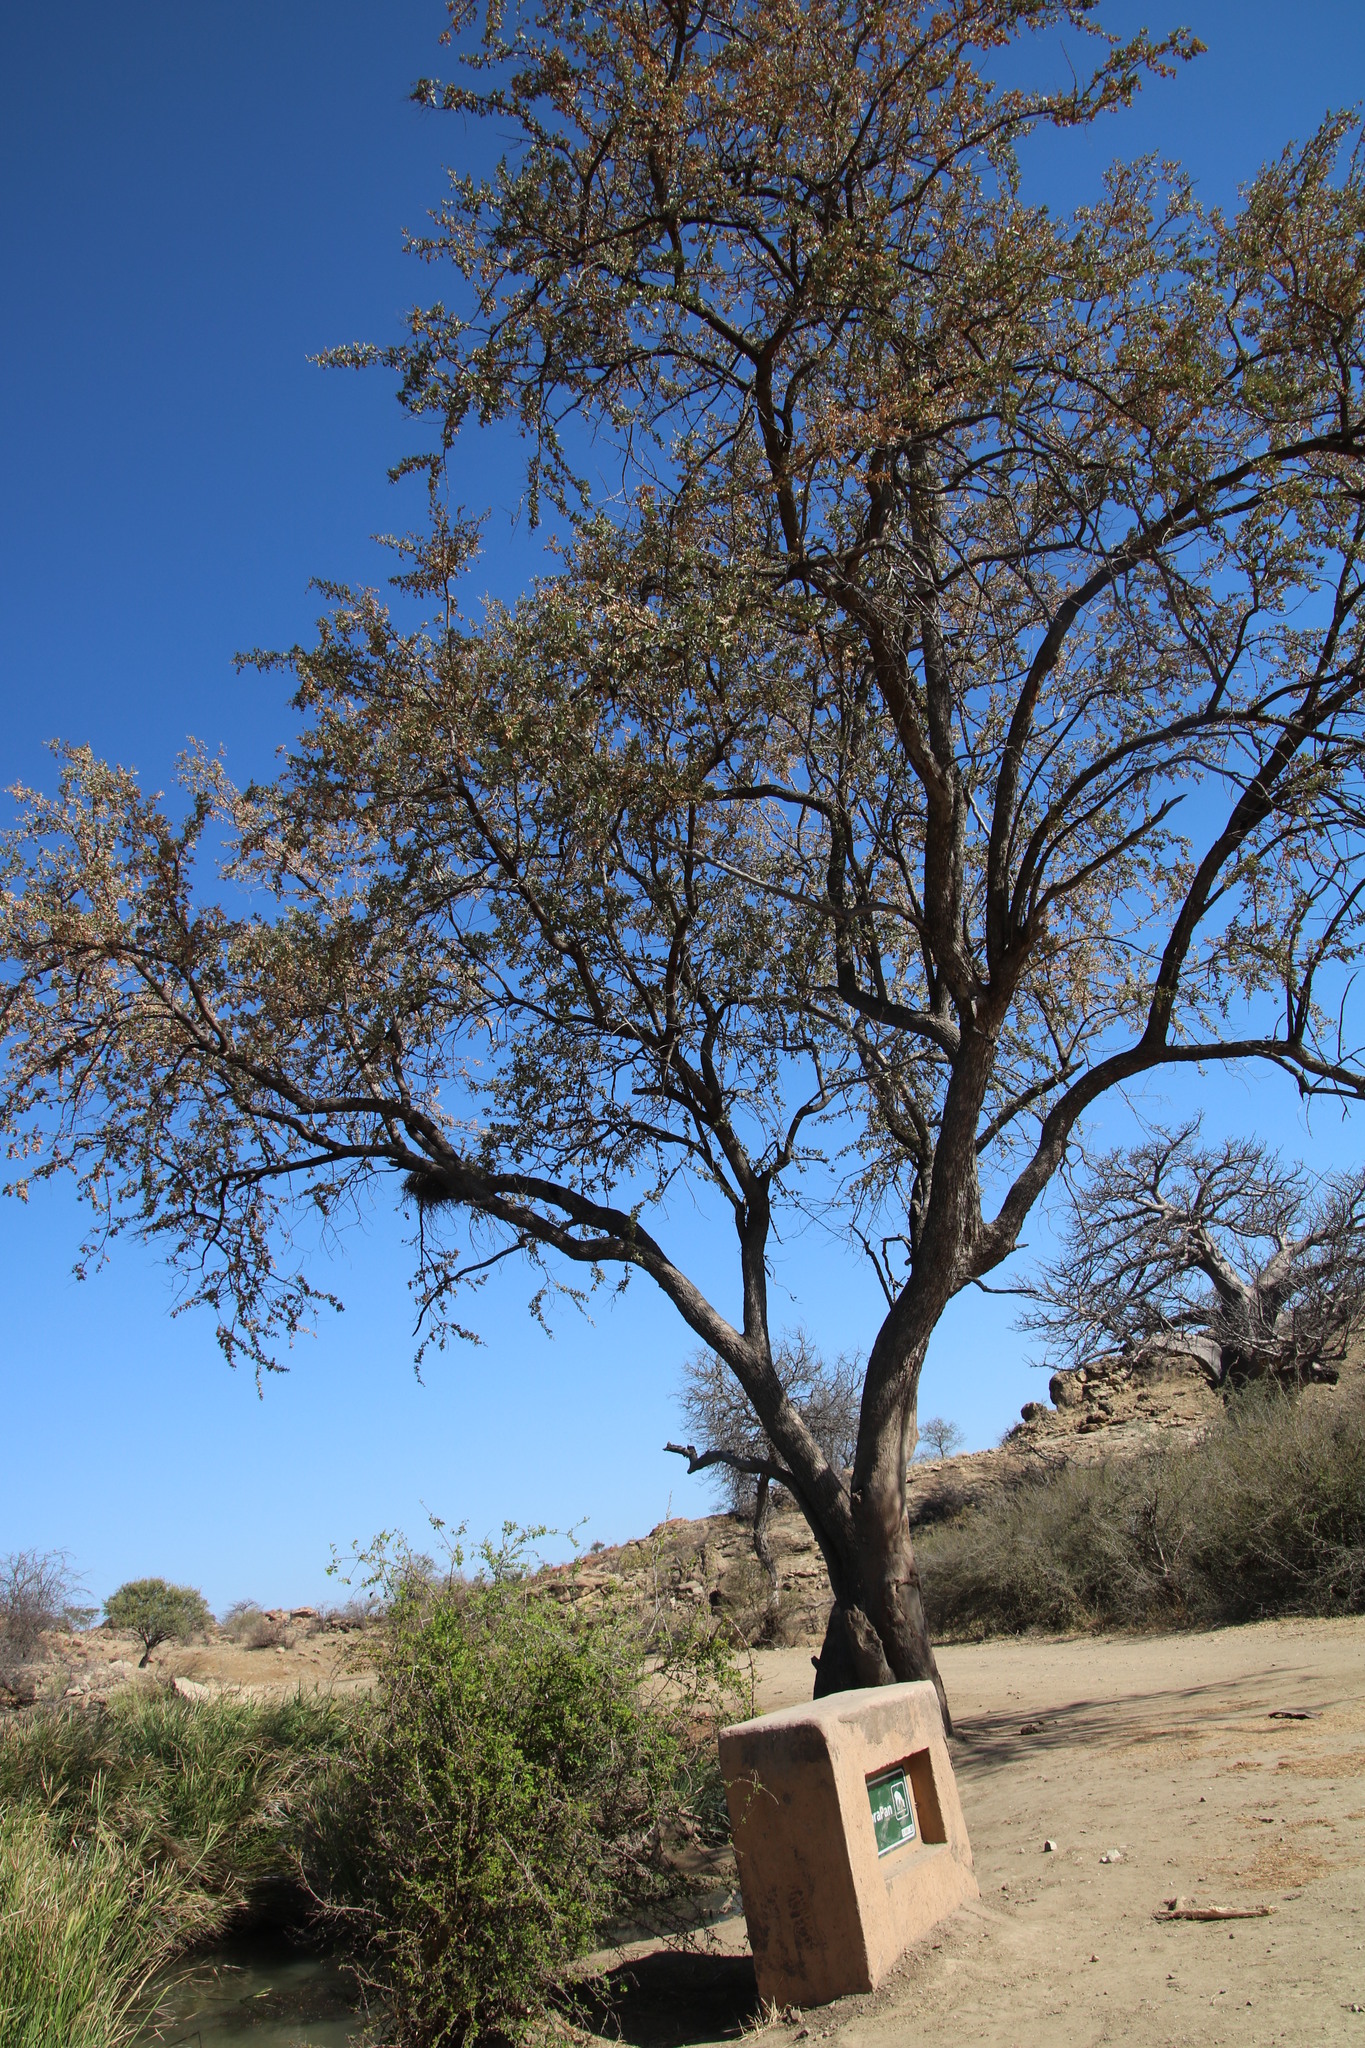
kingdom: Plantae
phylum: Tracheophyta
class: Magnoliopsida
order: Myrtales
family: Combretaceae
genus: Combretum
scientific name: Combretum imberbe
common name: Leadwood
